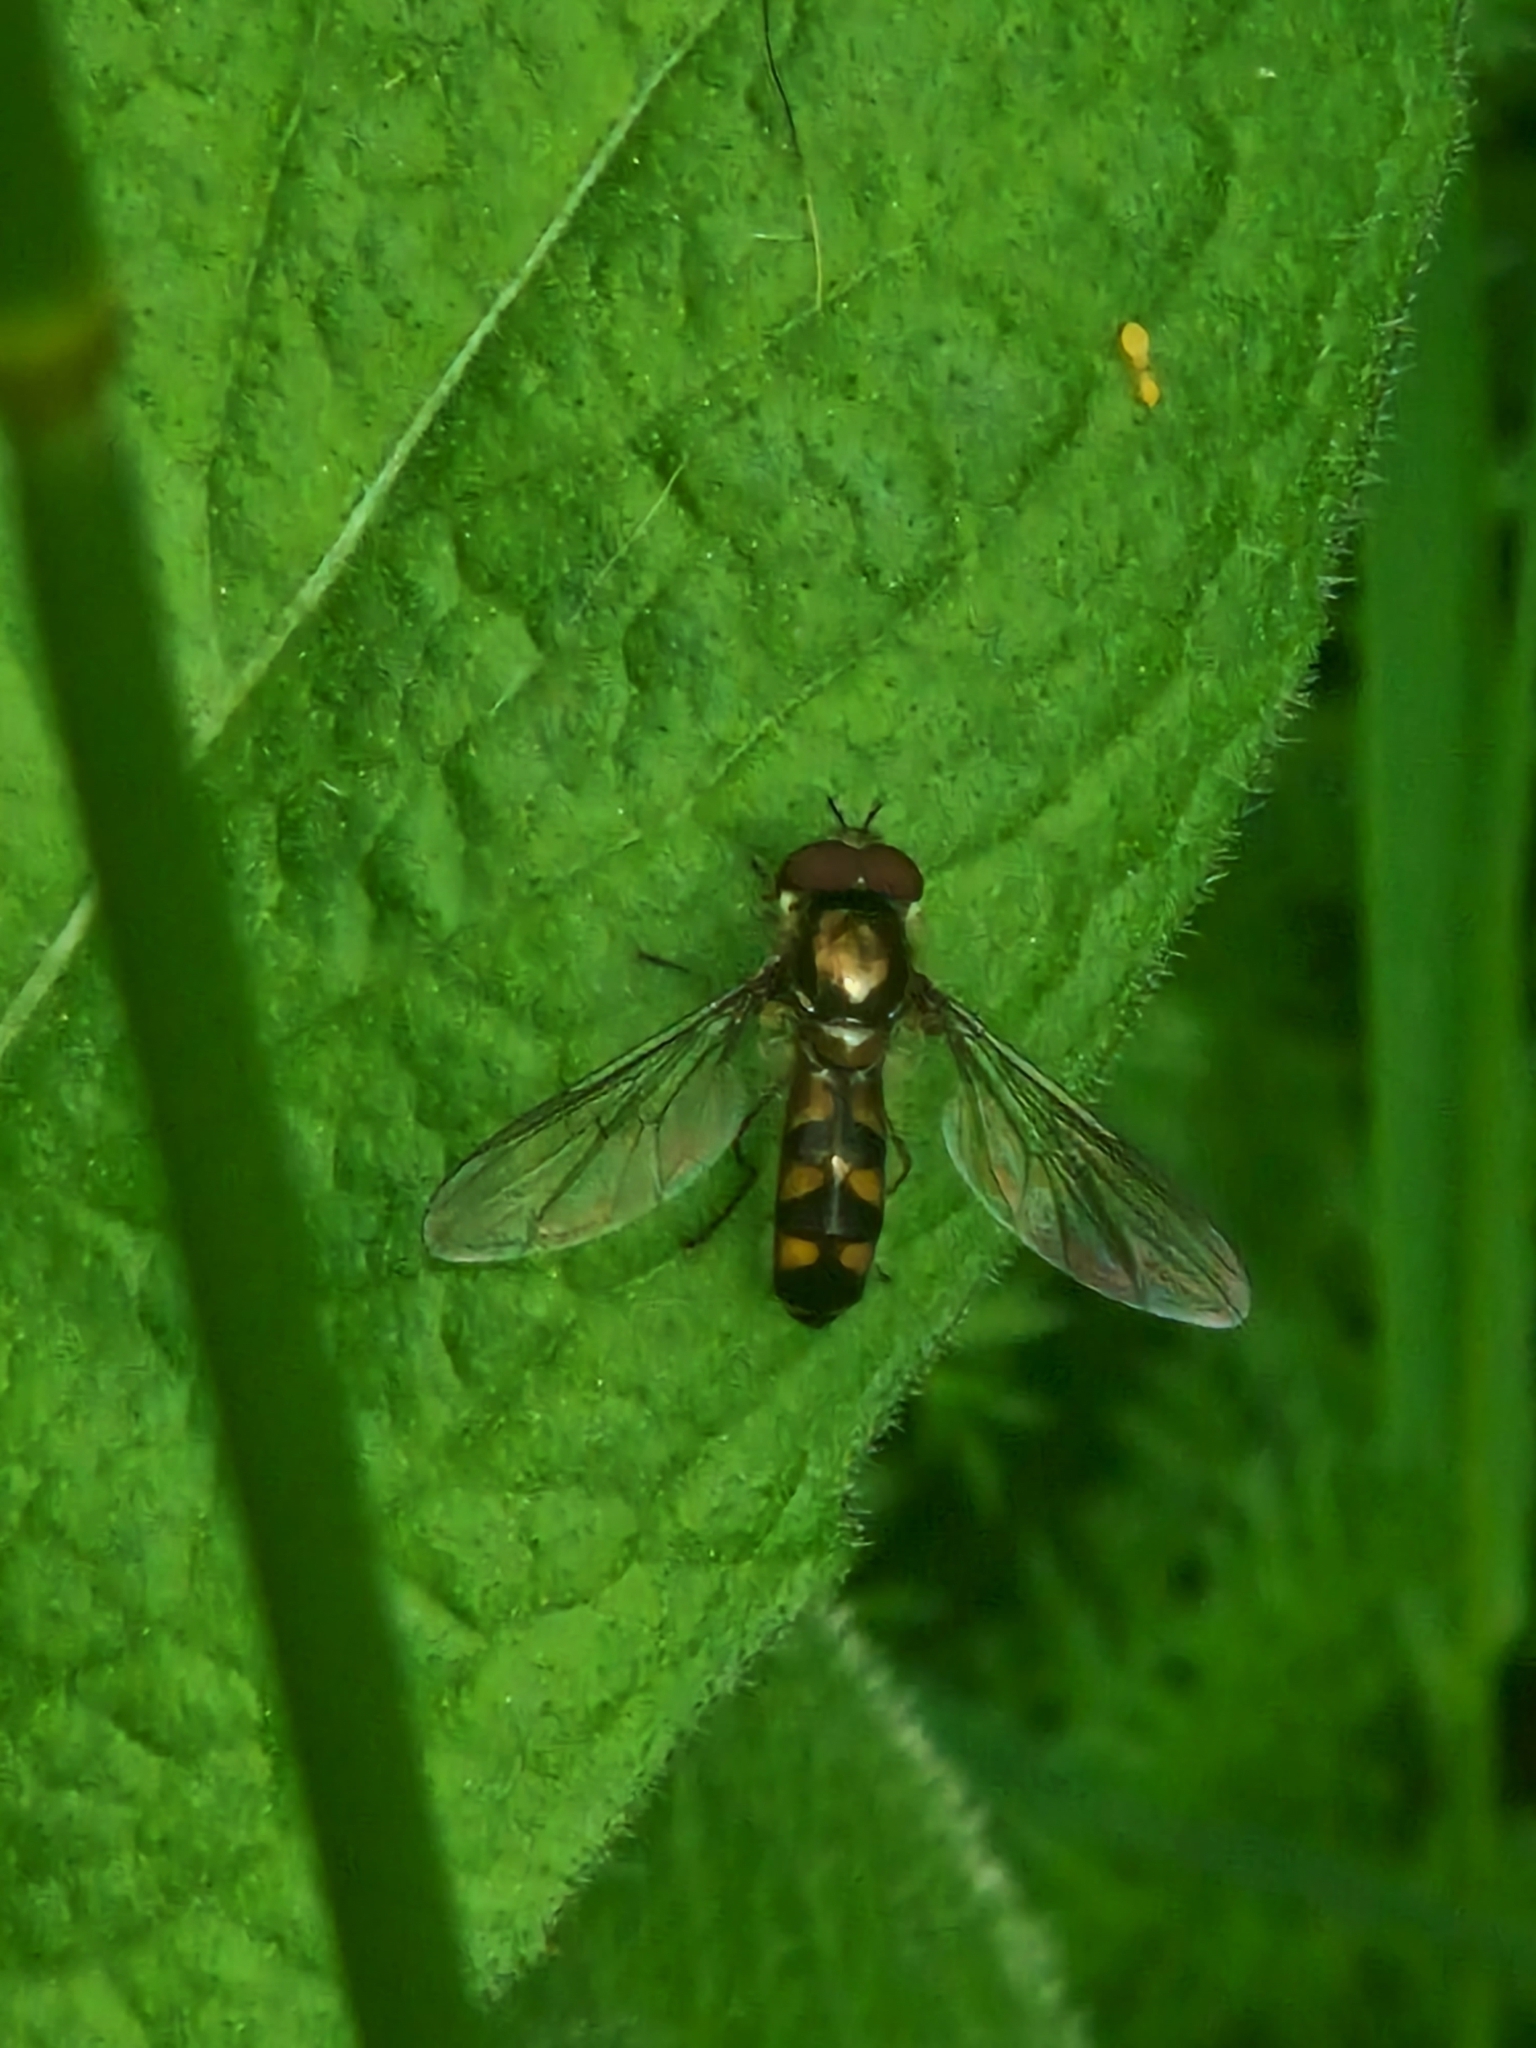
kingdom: Animalia
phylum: Arthropoda
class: Insecta
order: Diptera
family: Syrphidae
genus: Meliscaeva
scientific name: Meliscaeva auricollis
